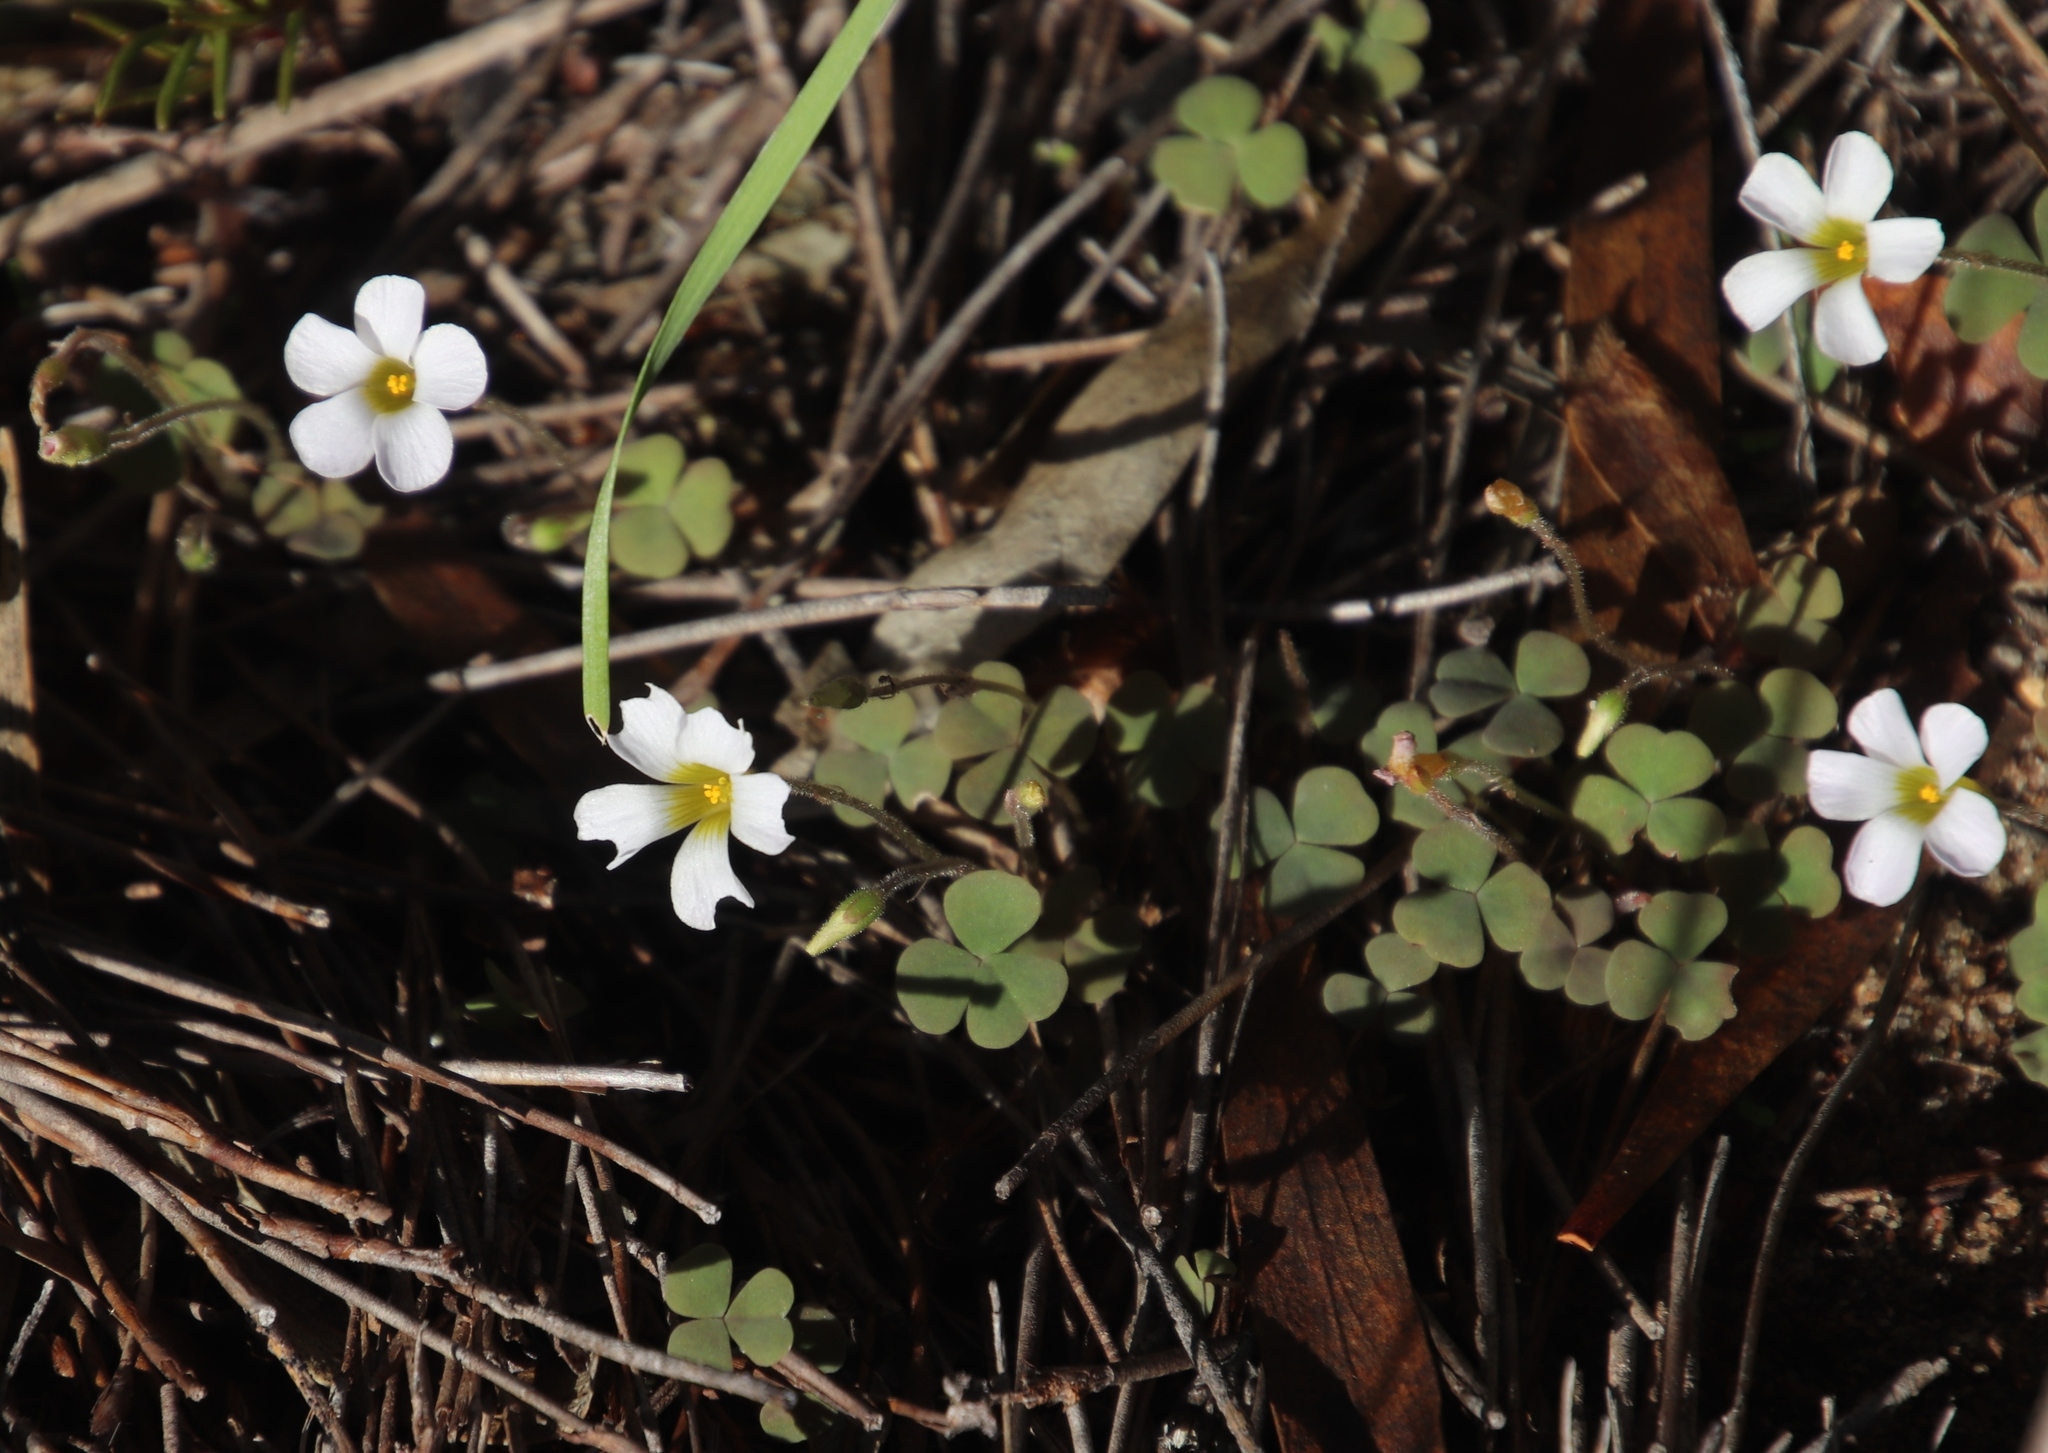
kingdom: Plantae
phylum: Tracheophyta
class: Magnoliopsida
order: Oxalidales
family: Oxalidaceae
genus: Oxalis
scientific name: Oxalis punctata
